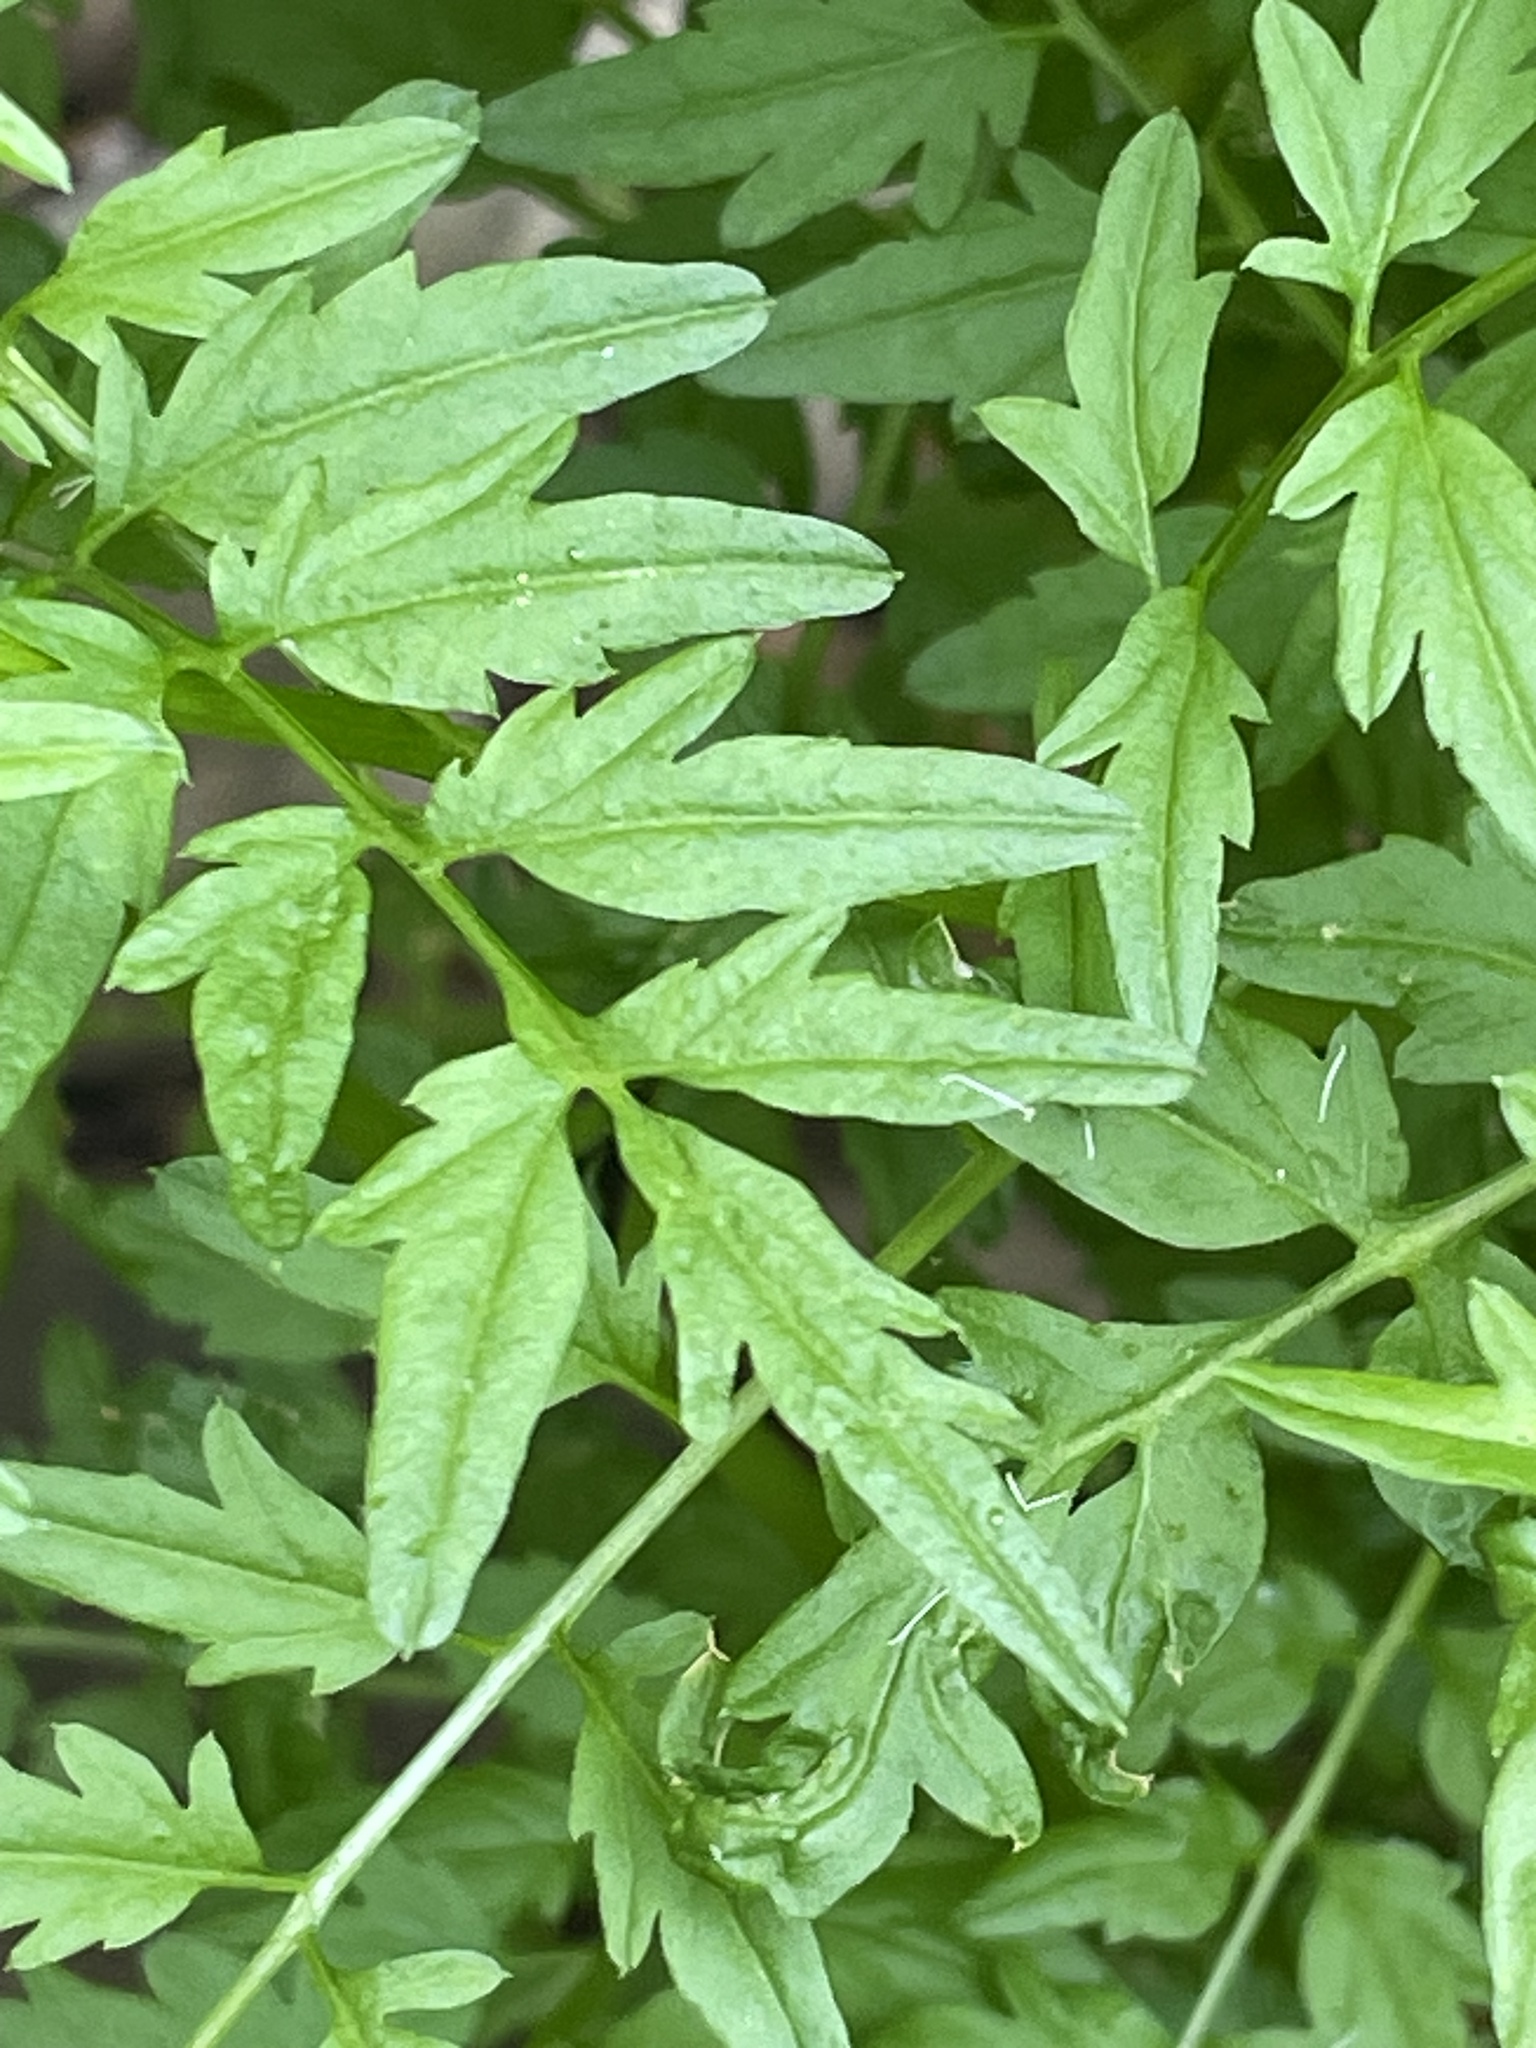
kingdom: Plantae
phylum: Tracheophyta
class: Magnoliopsida
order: Brassicales
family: Brassicaceae
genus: Cardamine
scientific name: Cardamine impatiens
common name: Narrow-leaved bitter-cress
